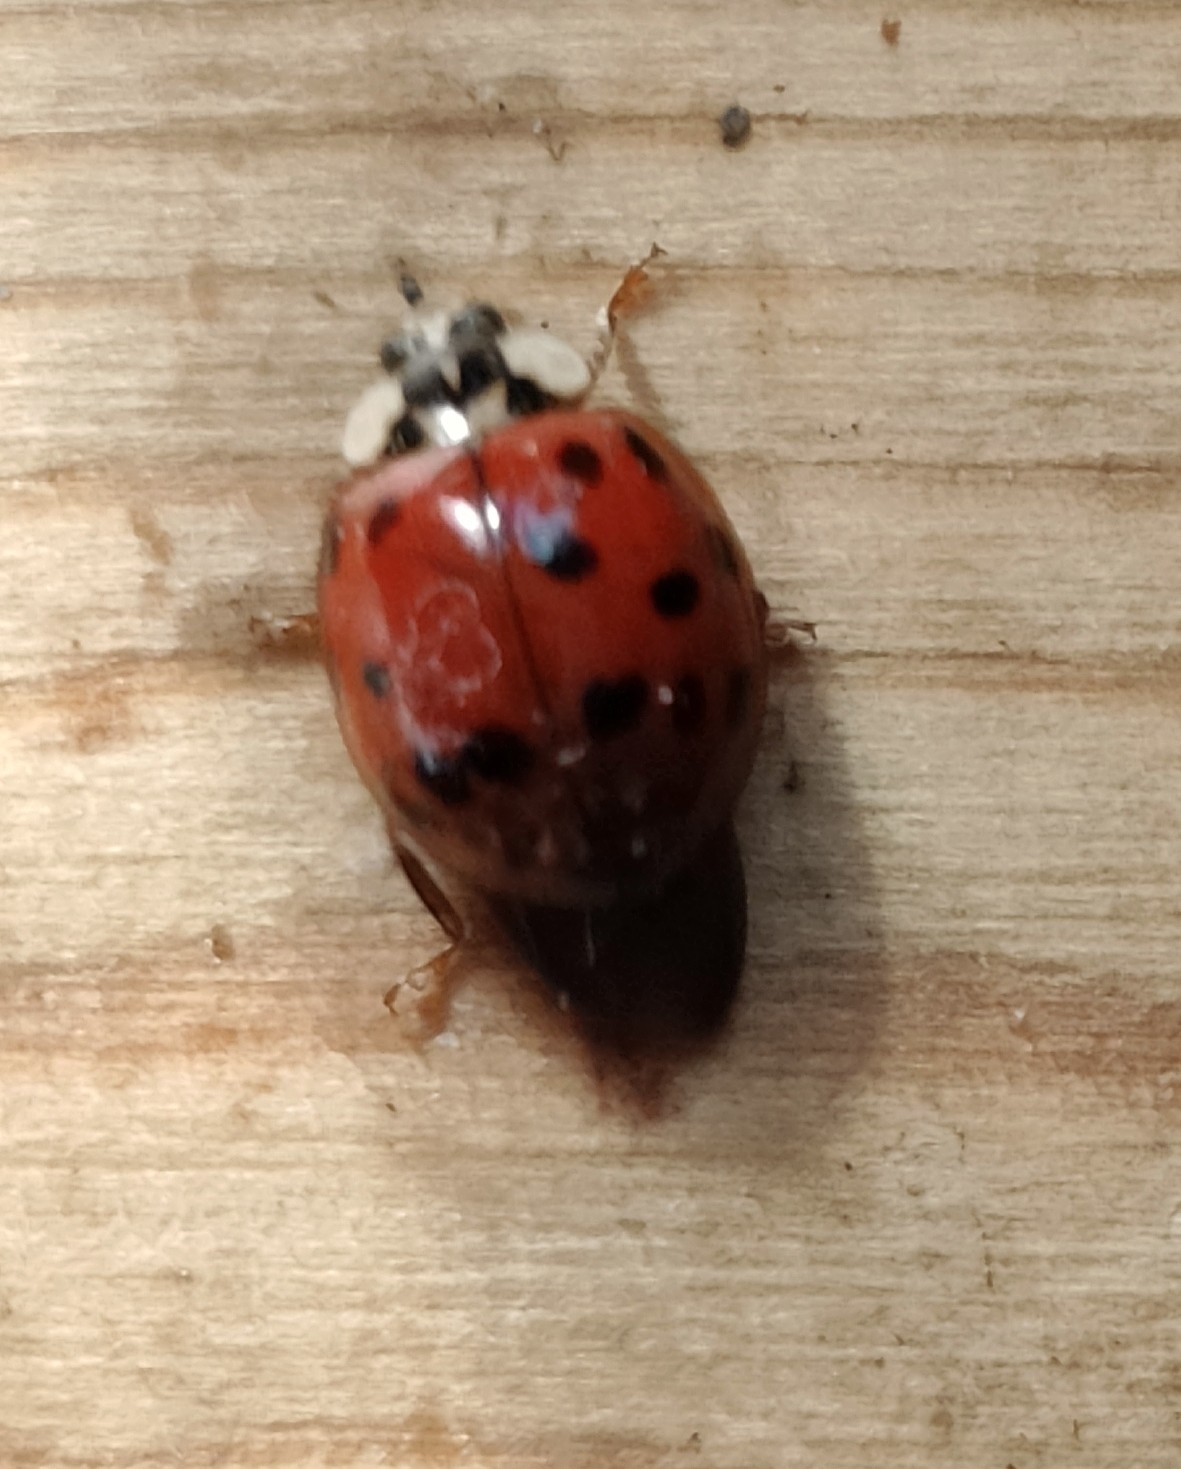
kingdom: Animalia
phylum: Arthropoda
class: Insecta
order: Coleoptera
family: Coccinellidae
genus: Harmonia
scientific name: Harmonia axyridis
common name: Harlequin ladybird
